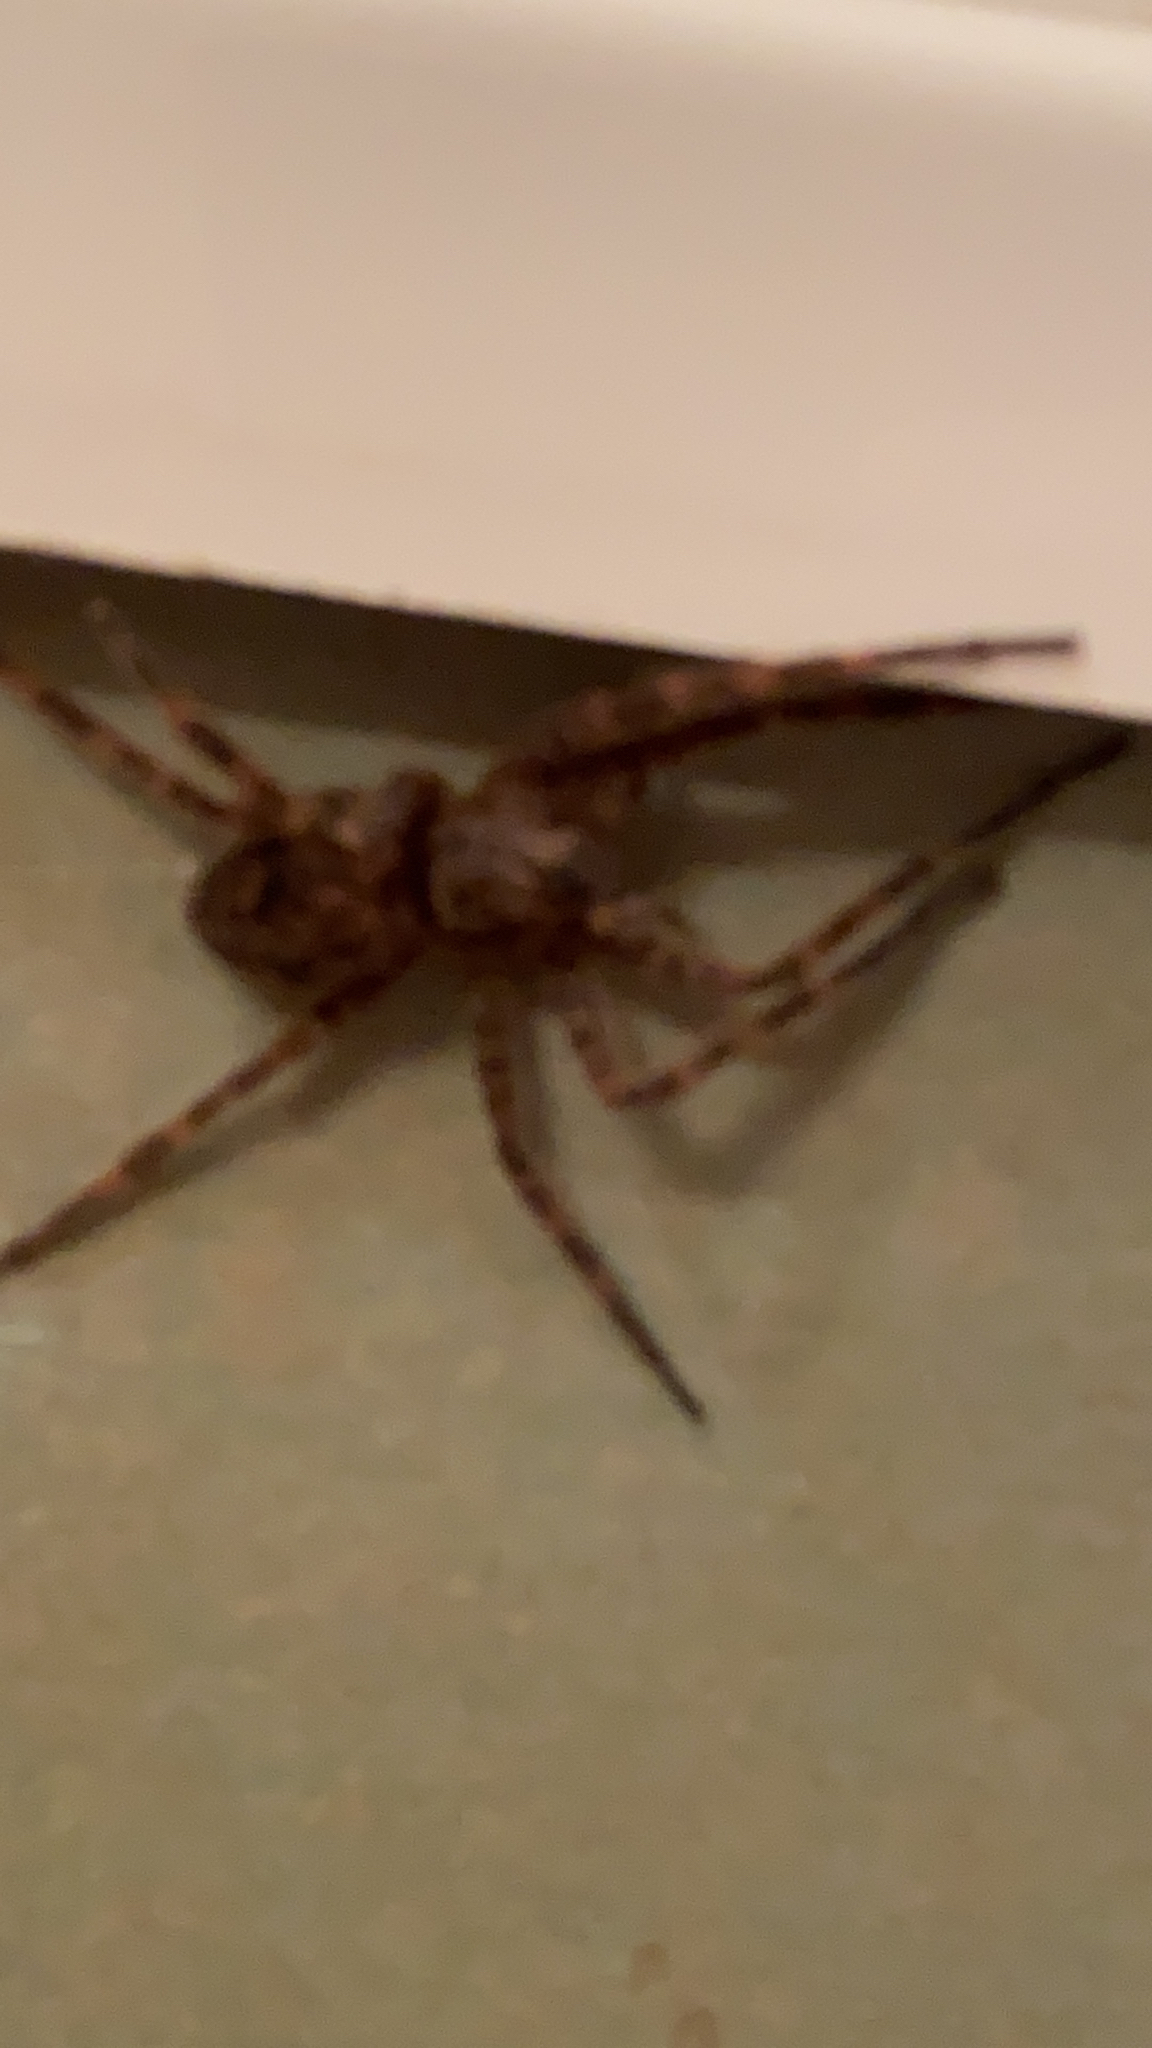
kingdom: Animalia
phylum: Arthropoda
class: Arachnida
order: Araneae
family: Pisauridae
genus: Dolomedes
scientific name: Dolomedes tenebrosus
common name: Dark fishing spider
